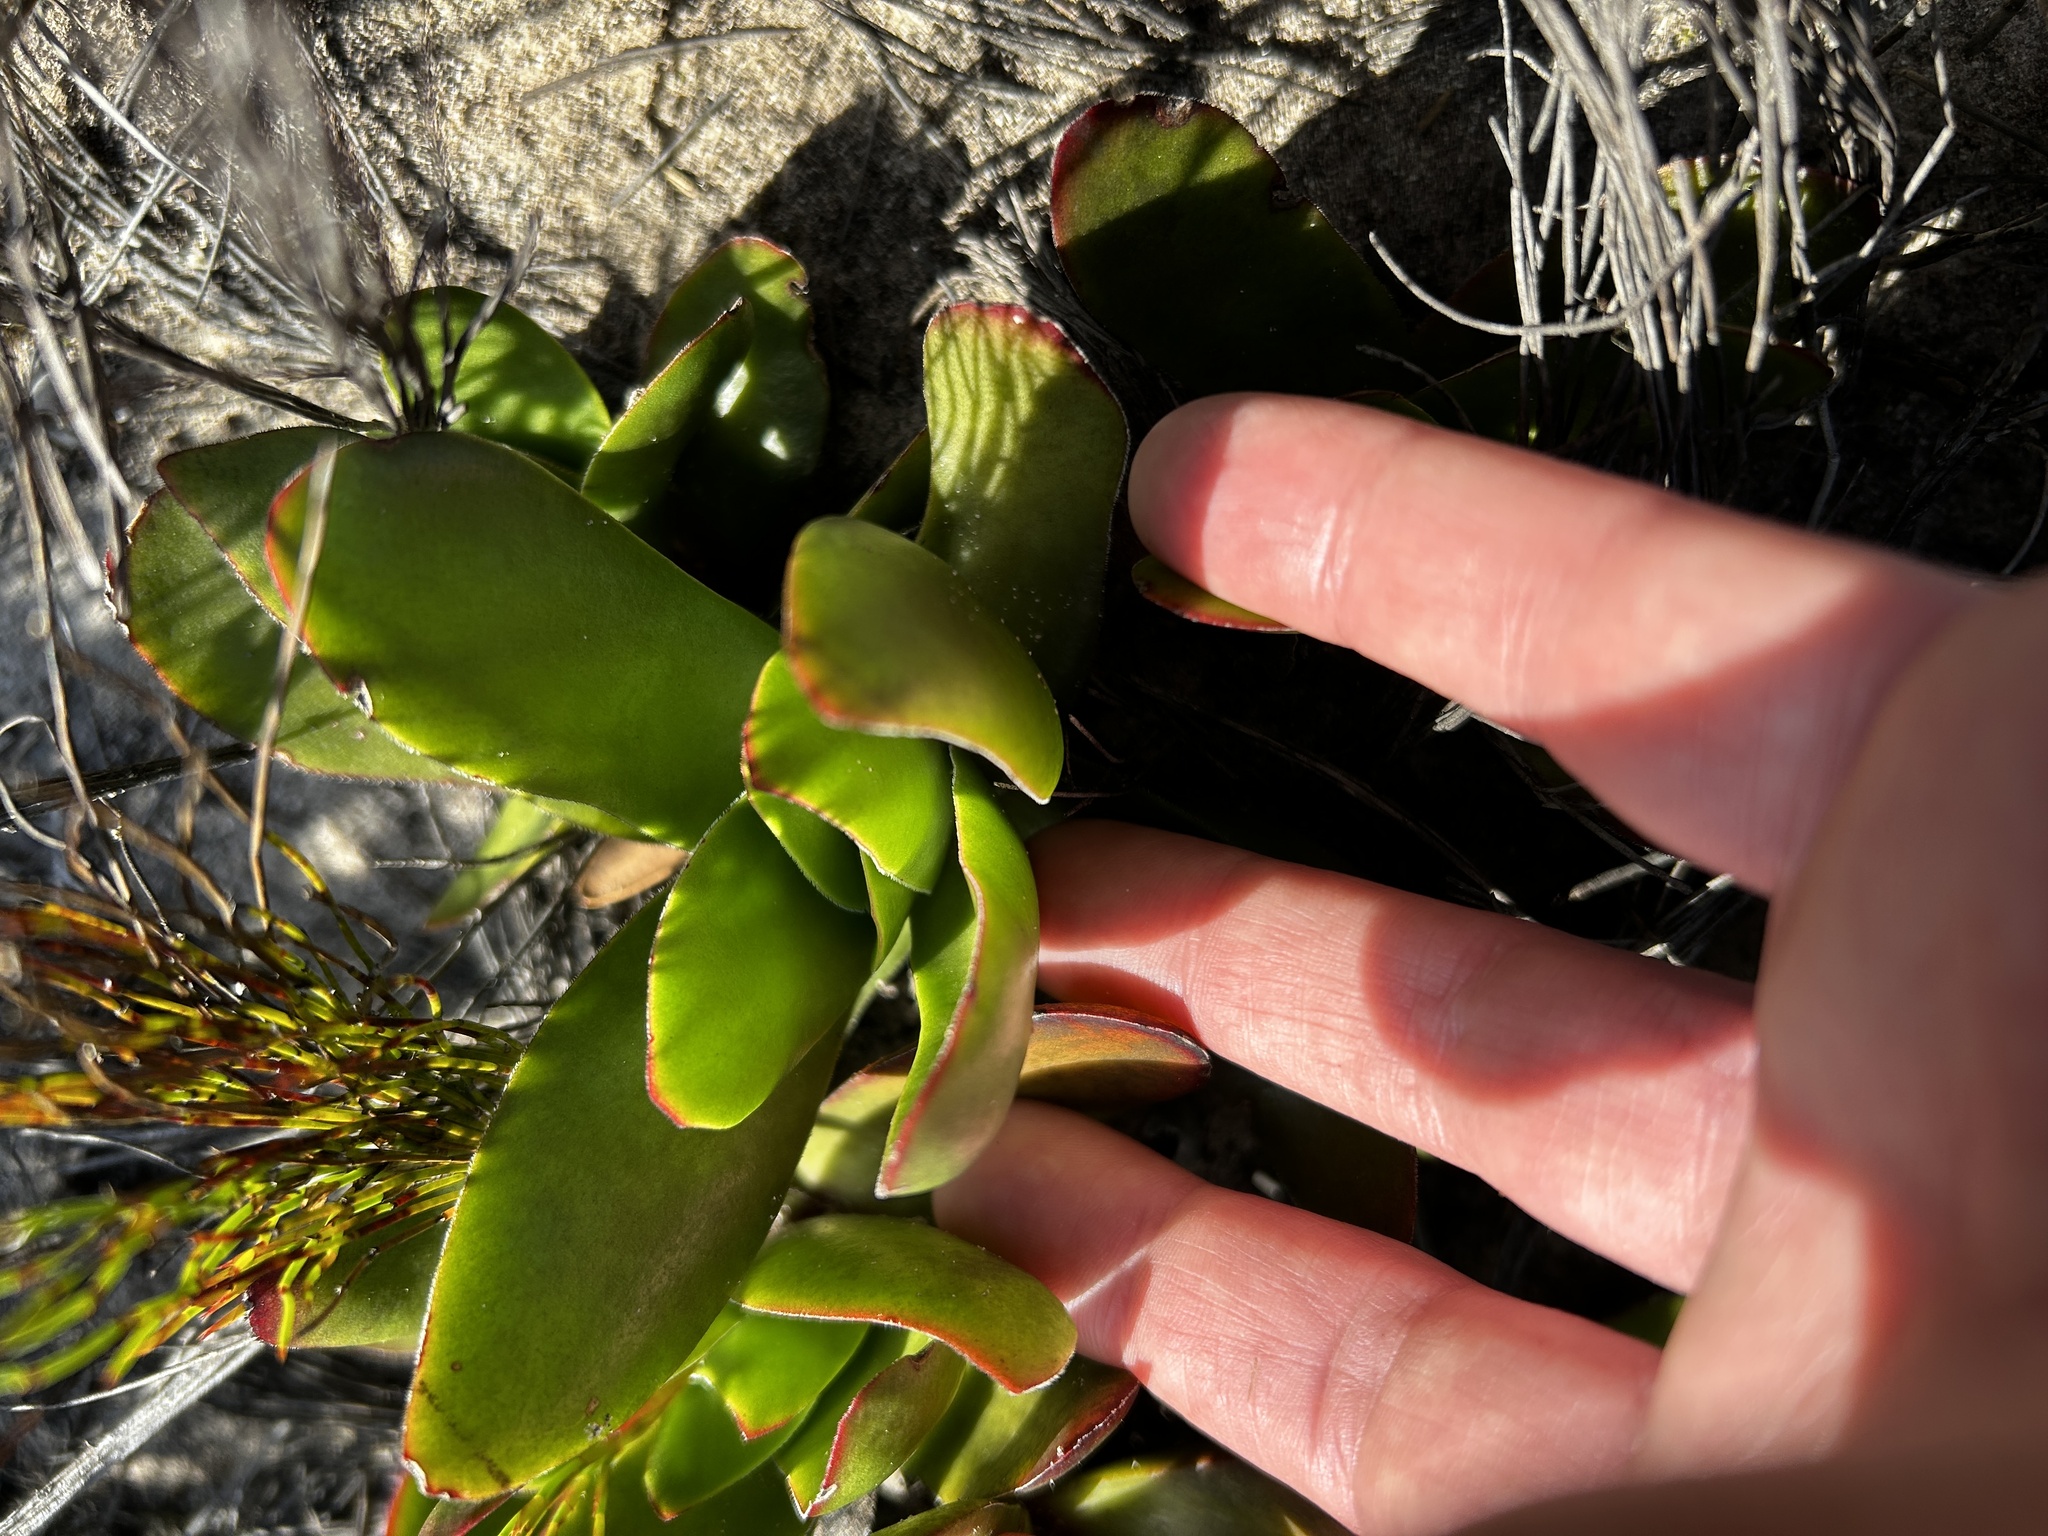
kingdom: Plantae
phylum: Tracheophyta
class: Magnoliopsida
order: Saxifragales
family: Crassulaceae
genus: Crassula
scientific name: Crassula nudicaulis
